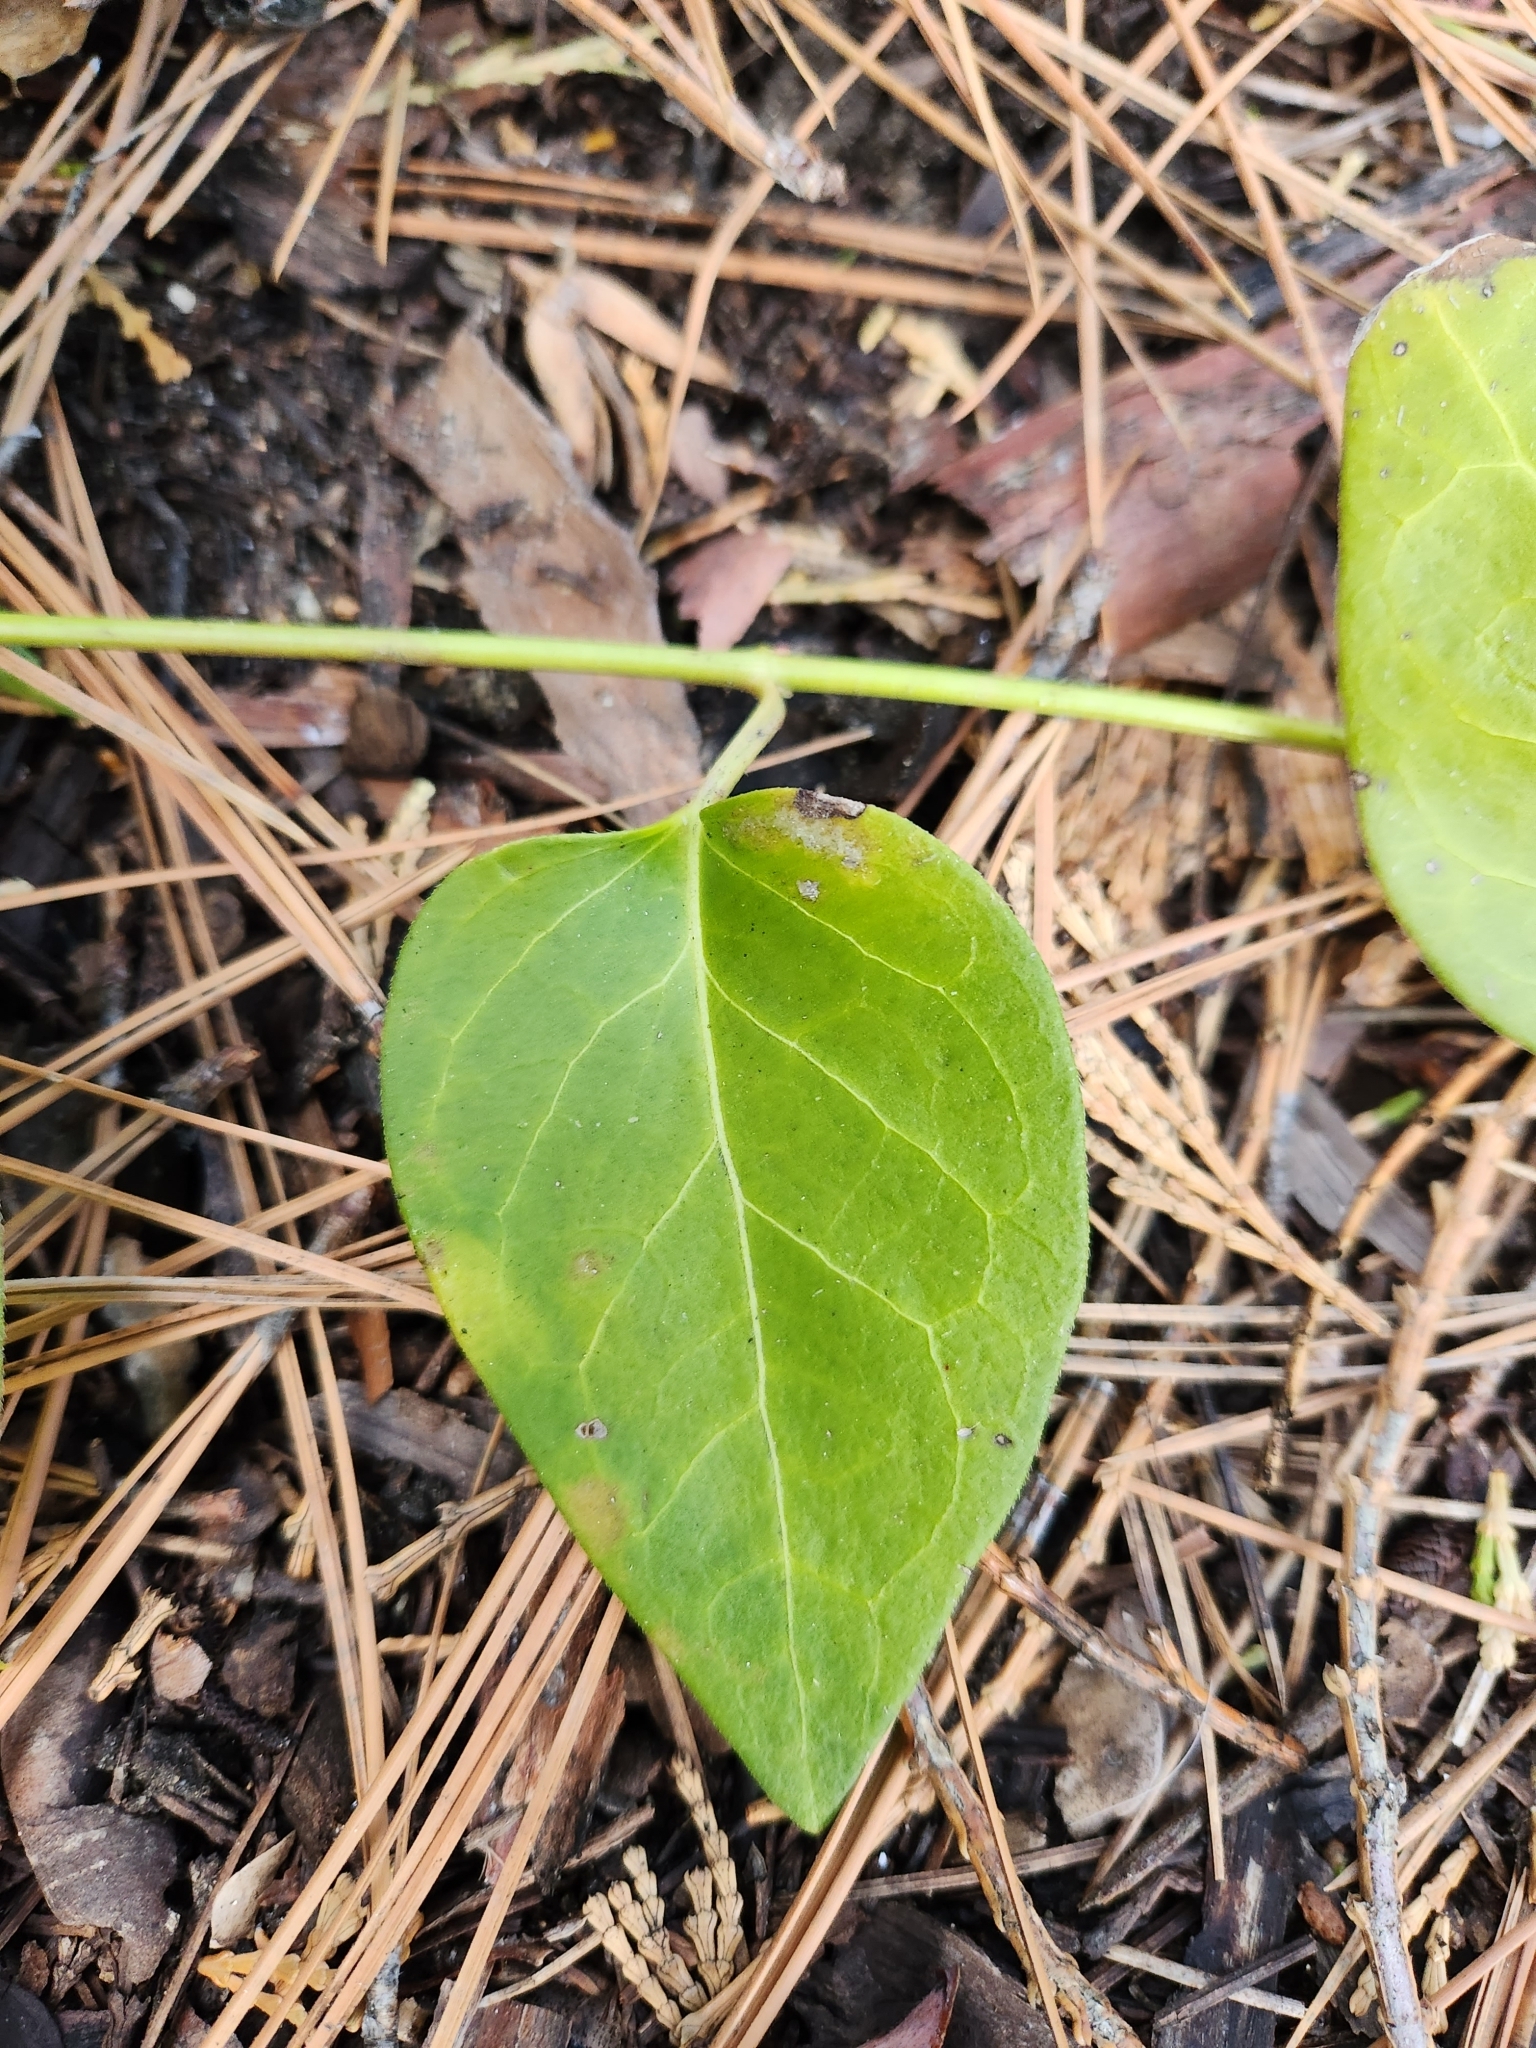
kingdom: Plantae
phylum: Tracheophyta
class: Magnoliopsida
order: Gentianales
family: Apocynaceae
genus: Vinca
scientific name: Vinca major
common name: Greater periwinkle
